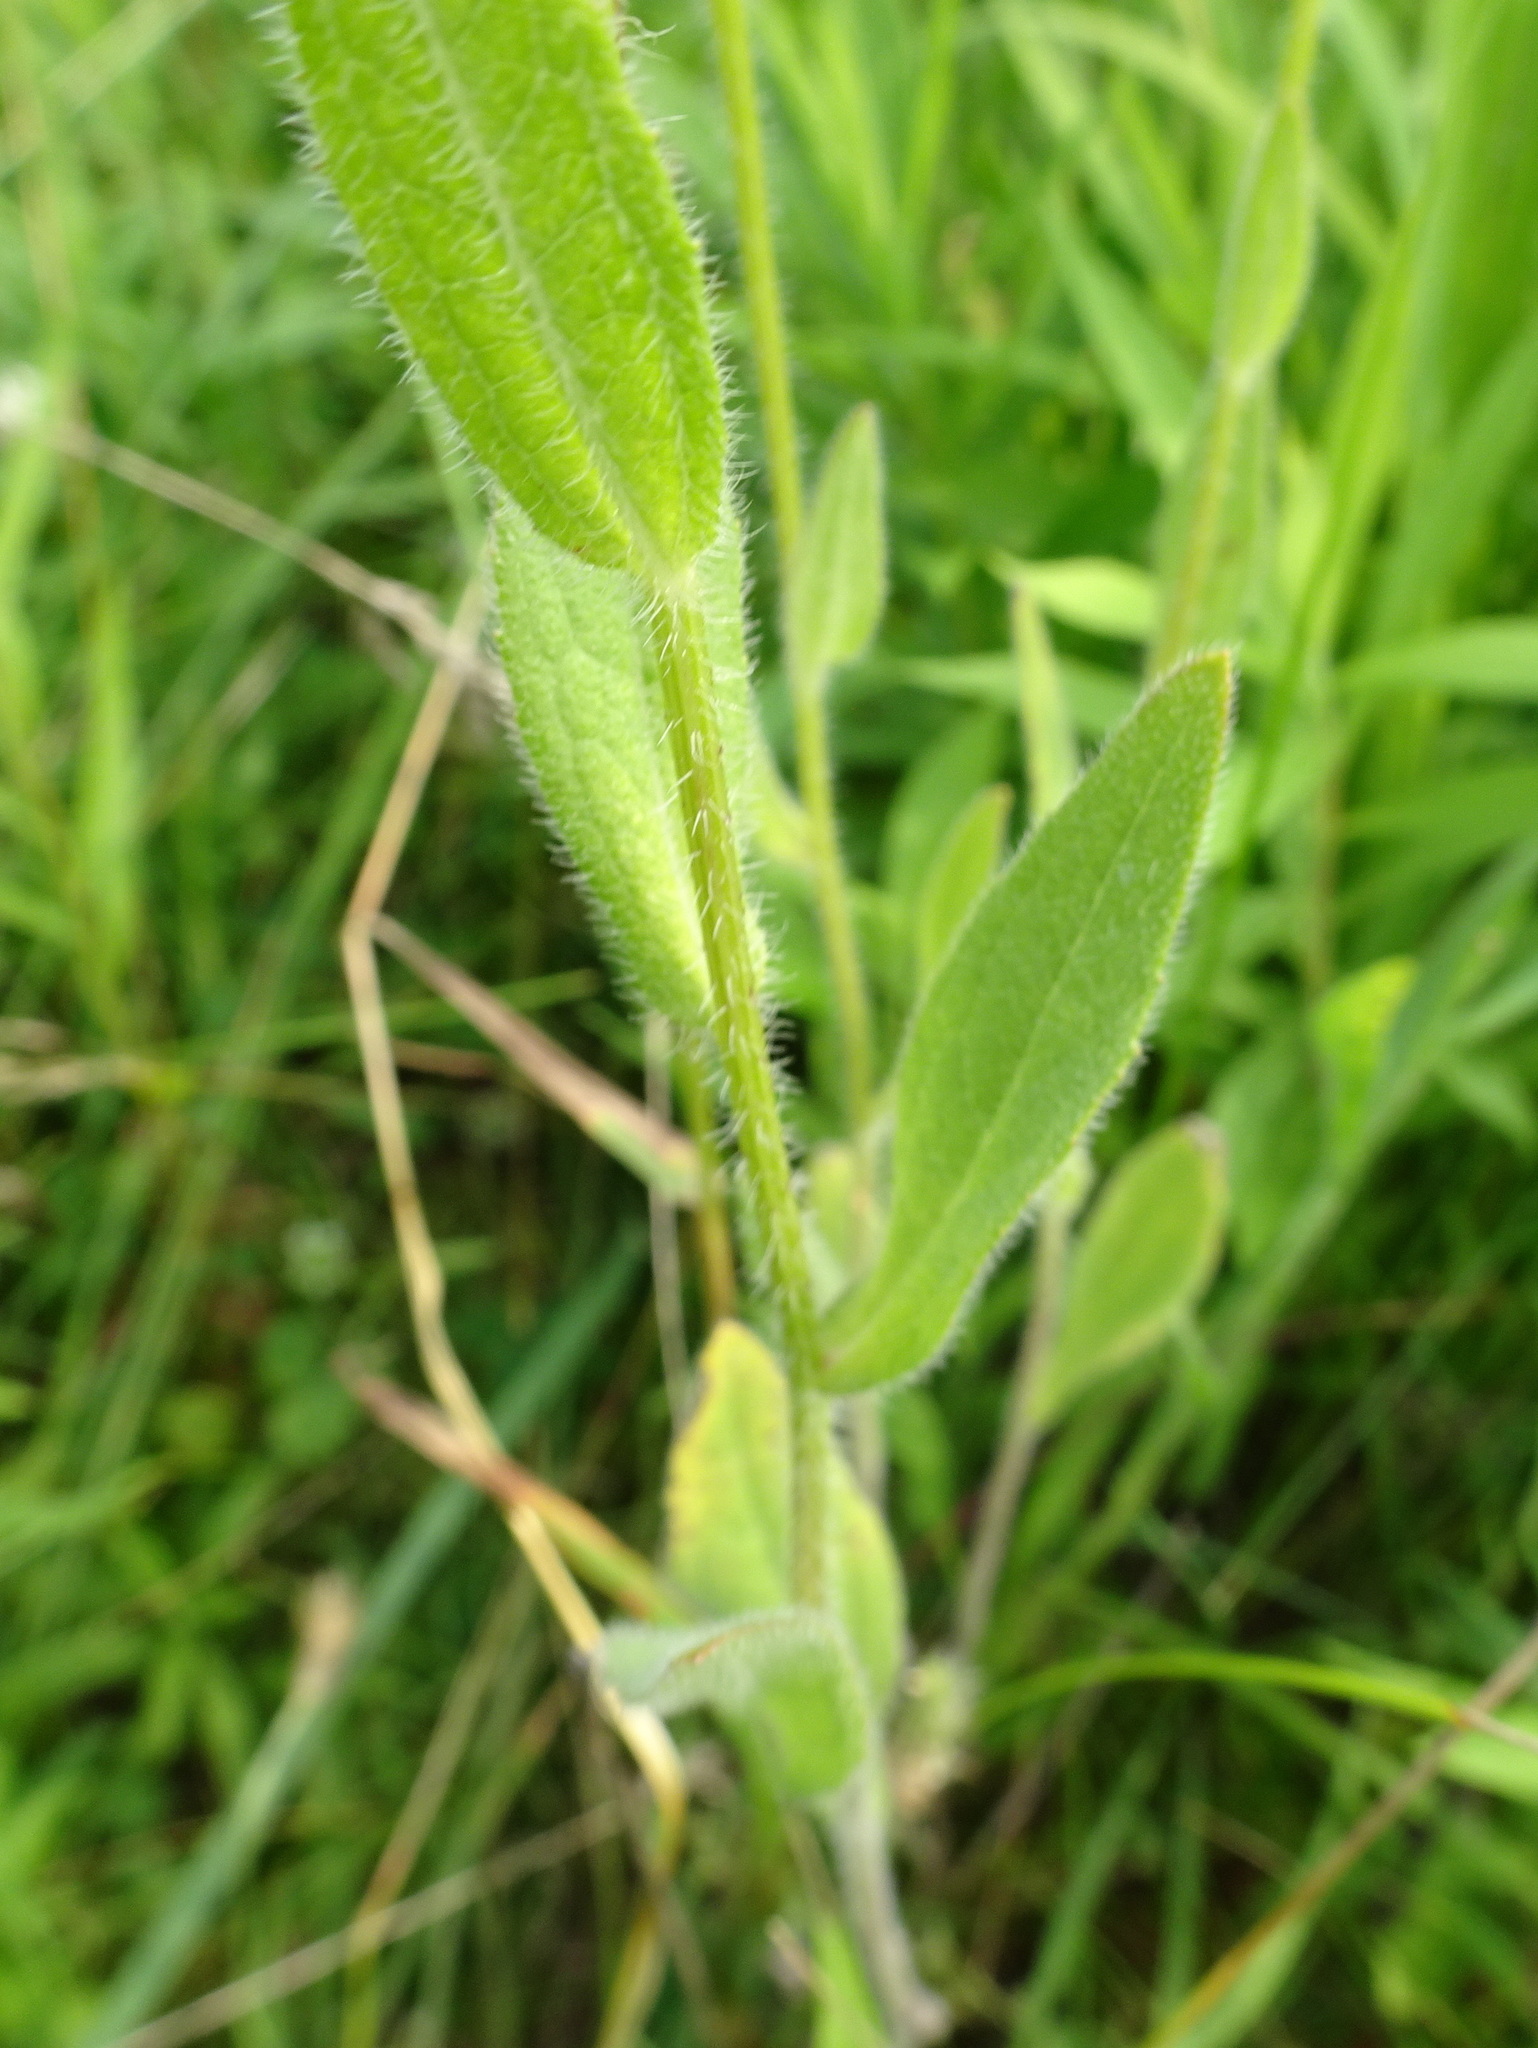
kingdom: Plantae
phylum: Tracheophyta
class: Magnoliopsida
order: Asterales
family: Asteraceae
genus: Rudbeckia
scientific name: Rudbeckia hirta
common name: Black-eyed-susan
